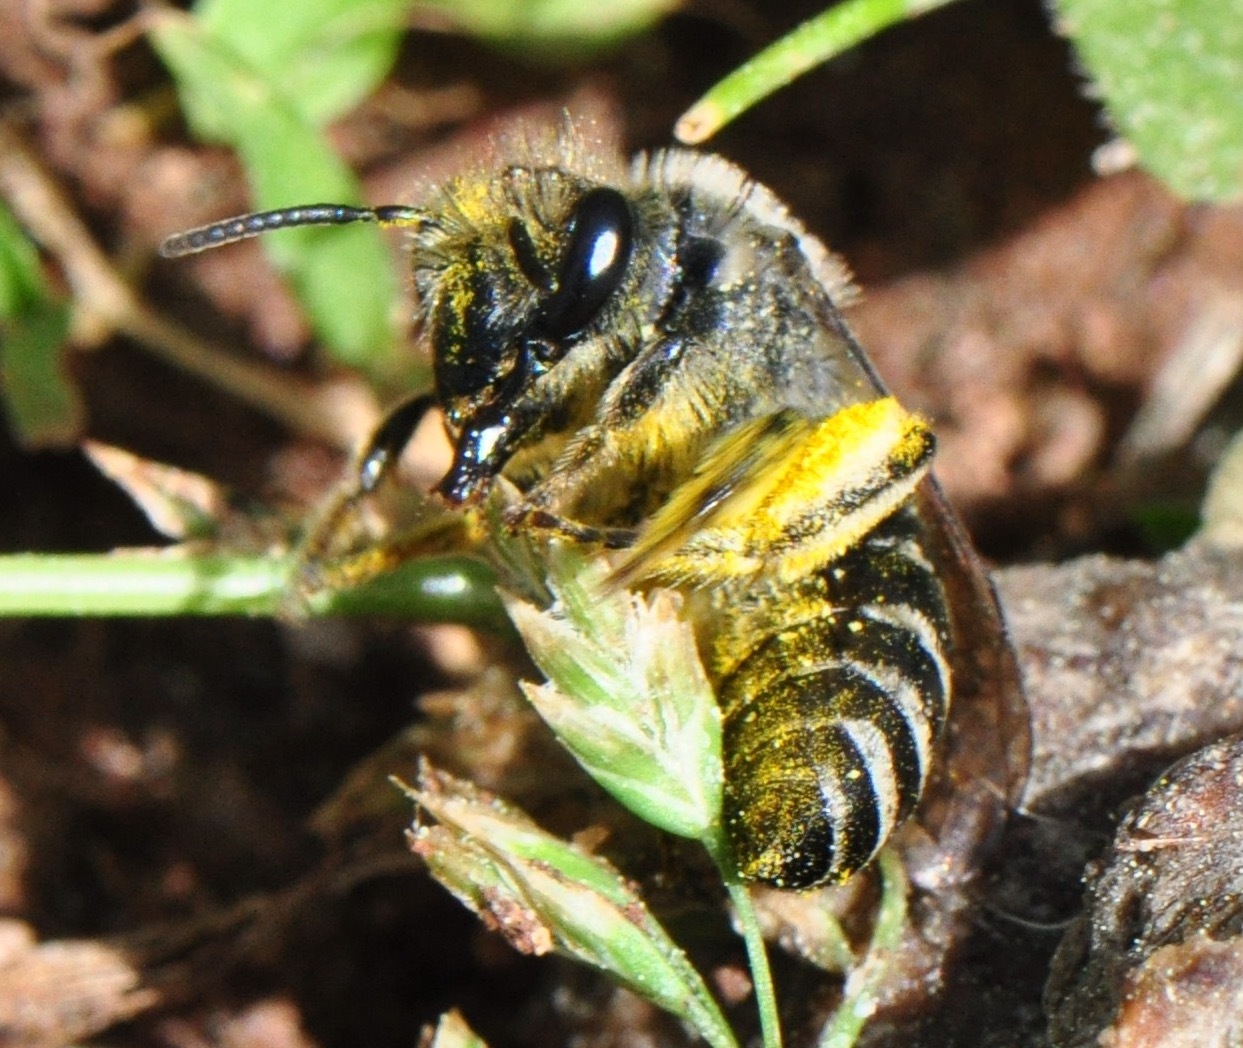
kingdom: Animalia
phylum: Arthropoda
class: Insecta
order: Hymenoptera
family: Colletidae
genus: Colletes
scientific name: Colletes inaequalis
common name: Unequal cellophane bee
